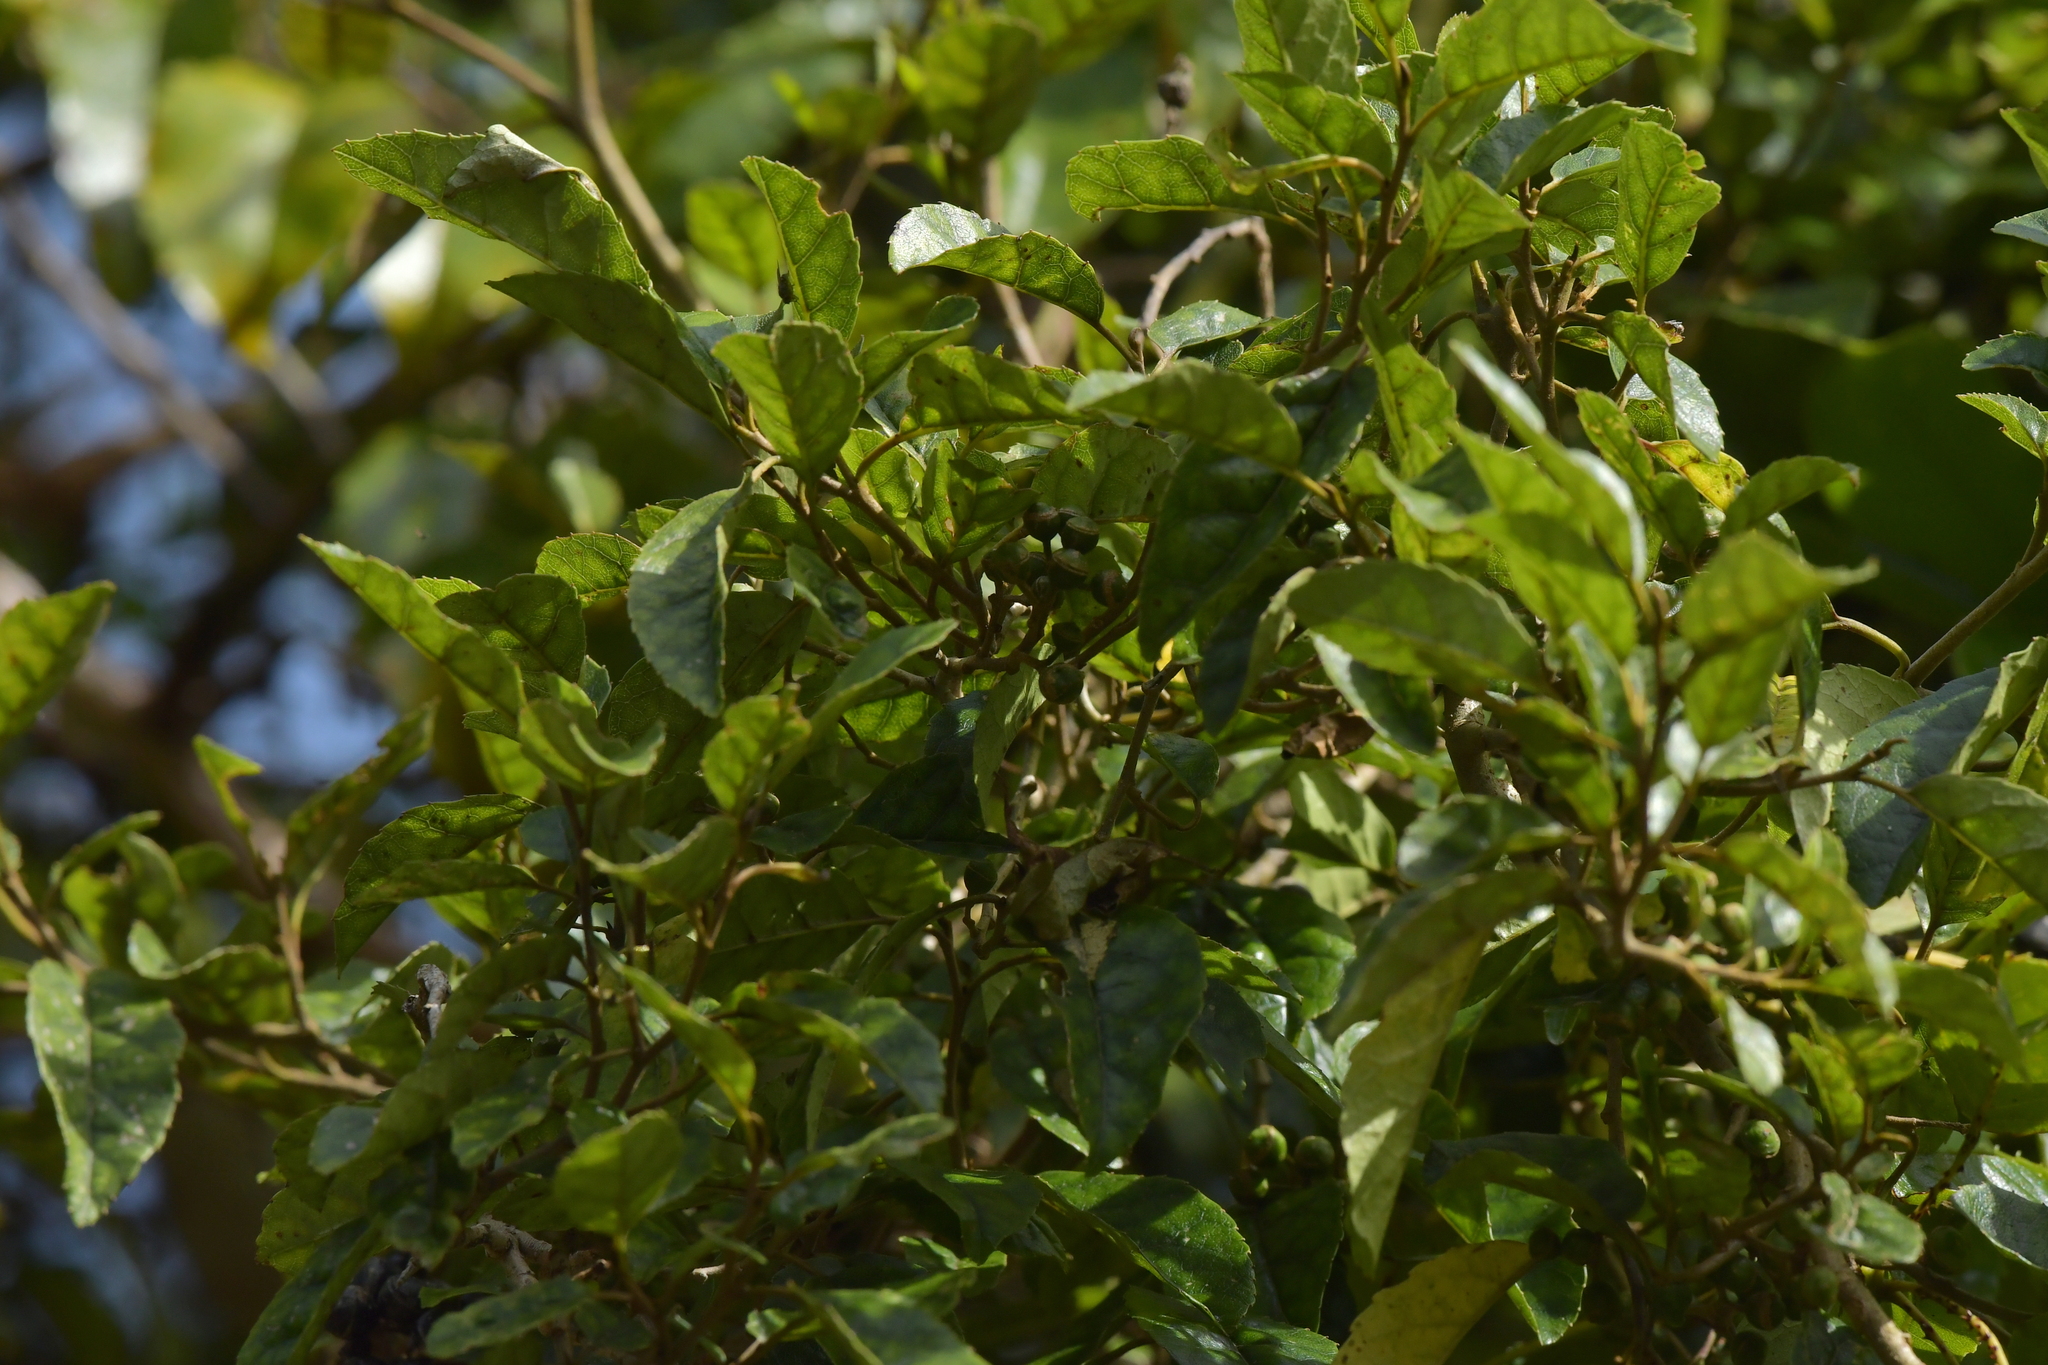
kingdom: Plantae
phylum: Tracheophyta
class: Magnoliopsida
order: Asterales
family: Rousseaceae
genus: Carpodetus
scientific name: Carpodetus serratus
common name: White mapau
